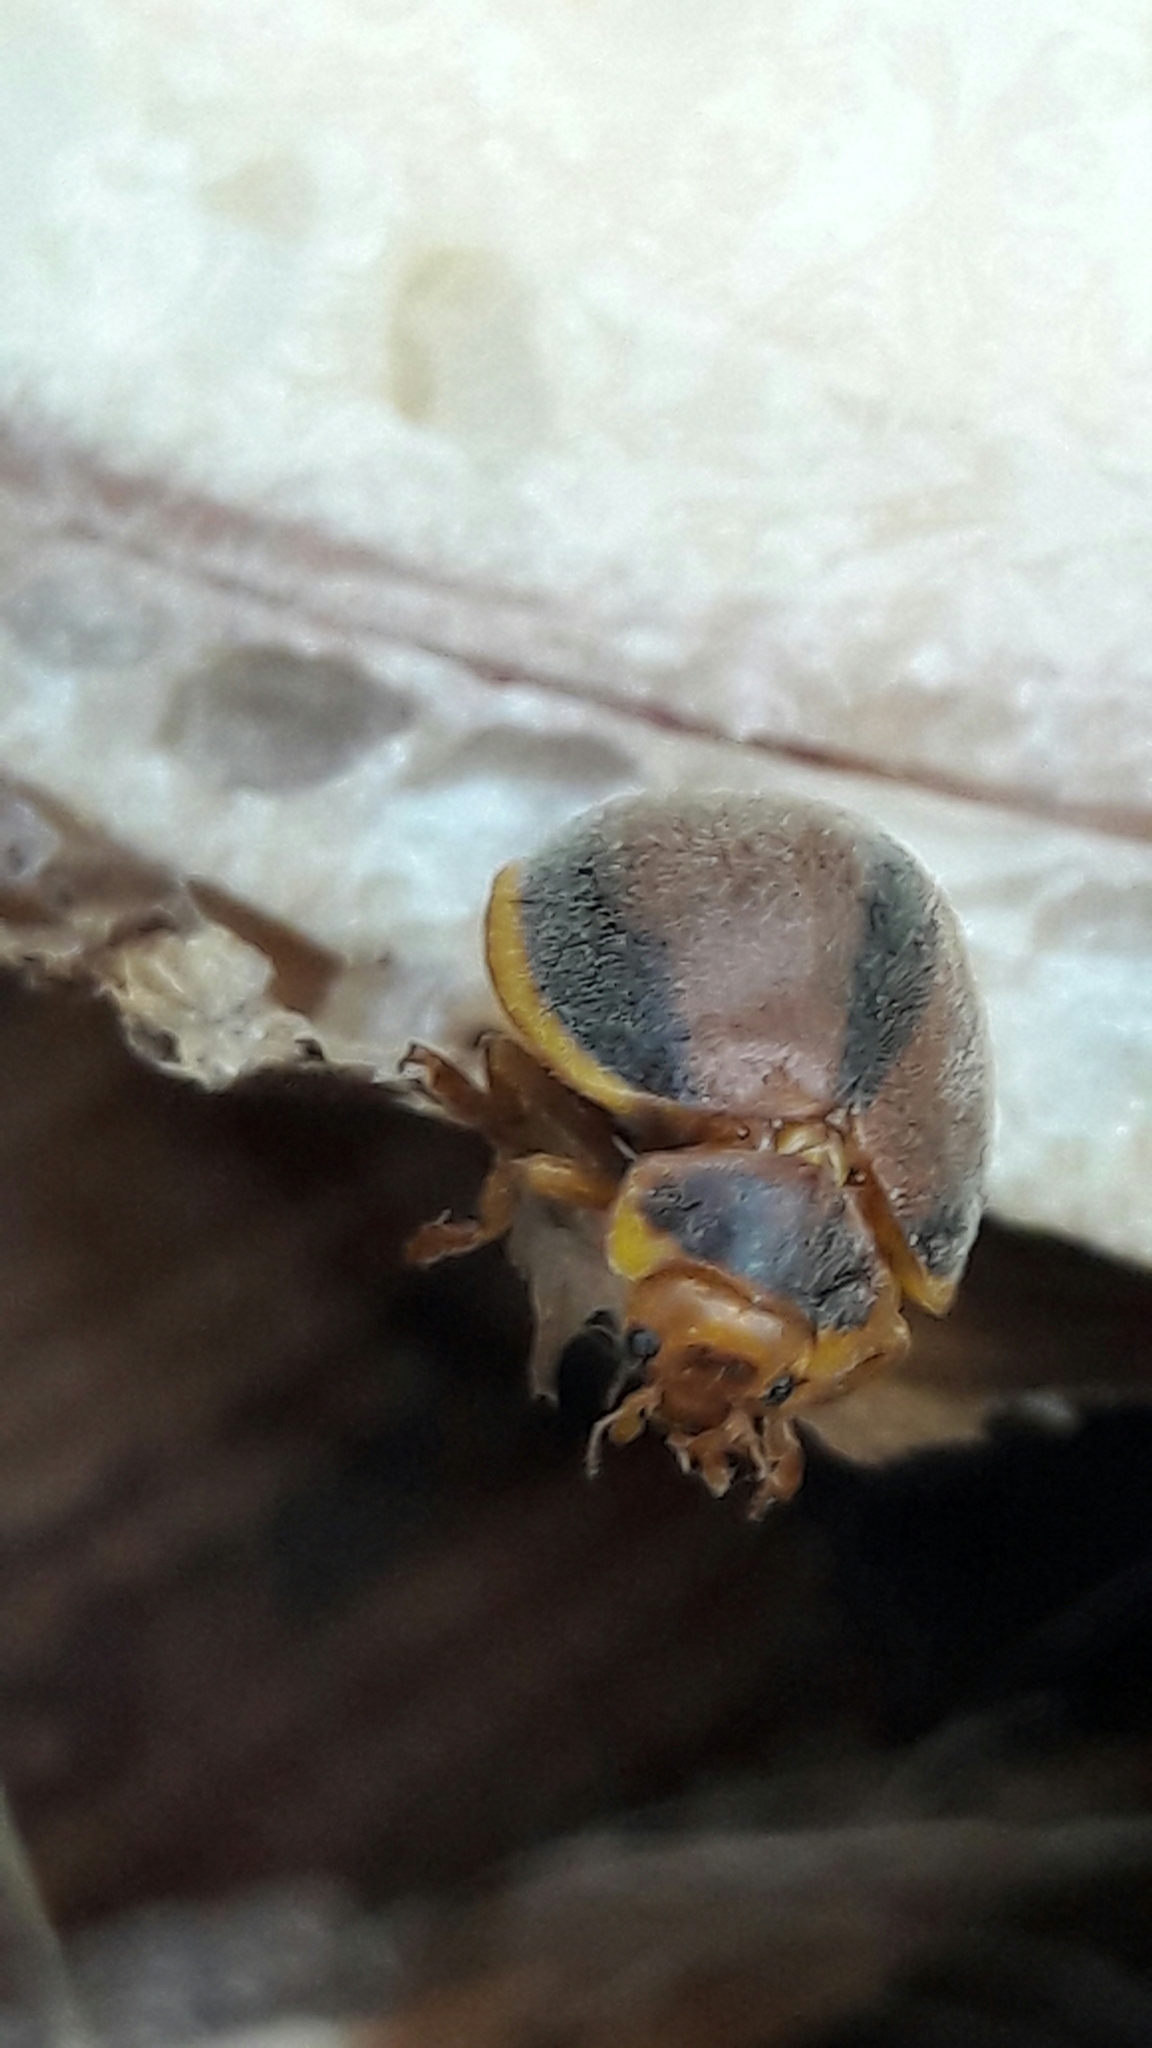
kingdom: Animalia
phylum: Arthropoda
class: Insecta
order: Coleoptera
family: Coccinellidae
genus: Epilachna
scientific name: Epilachna cacica
